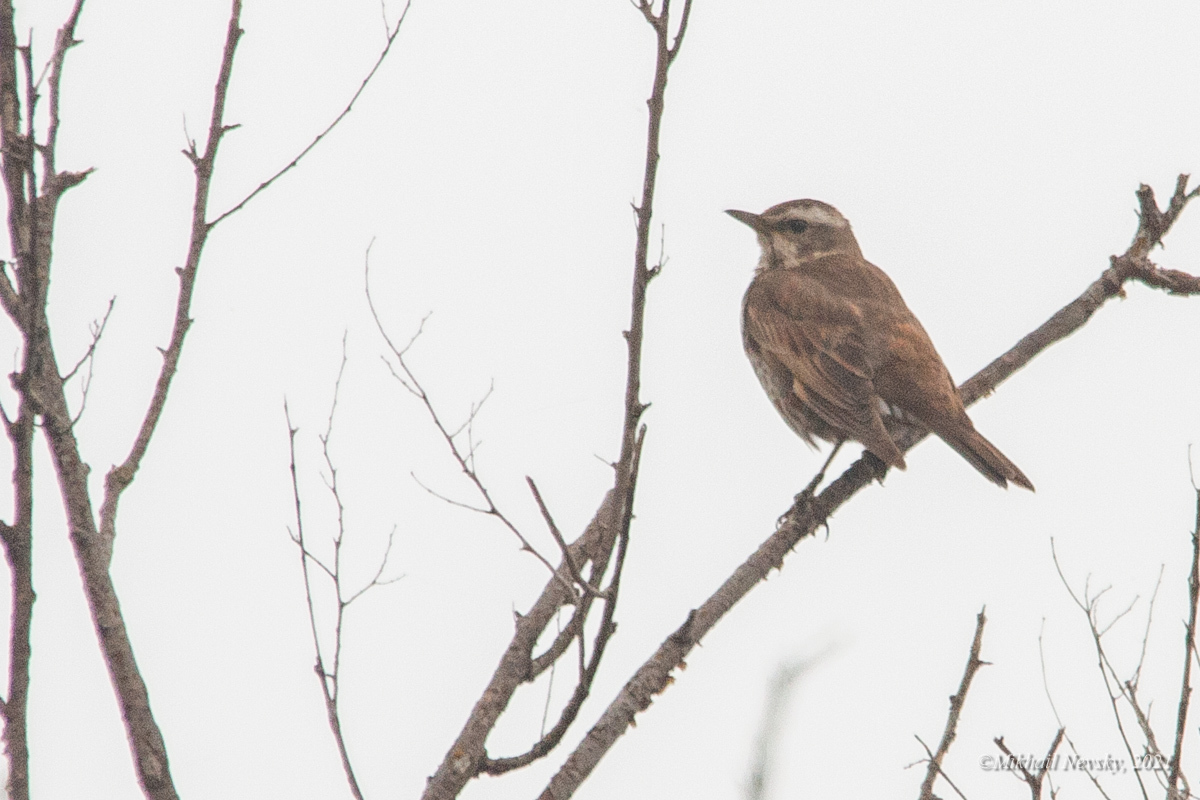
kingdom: Animalia
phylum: Chordata
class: Aves
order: Passeriformes
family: Turdidae
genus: Turdus
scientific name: Turdus eunomus
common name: Dusky thrush
